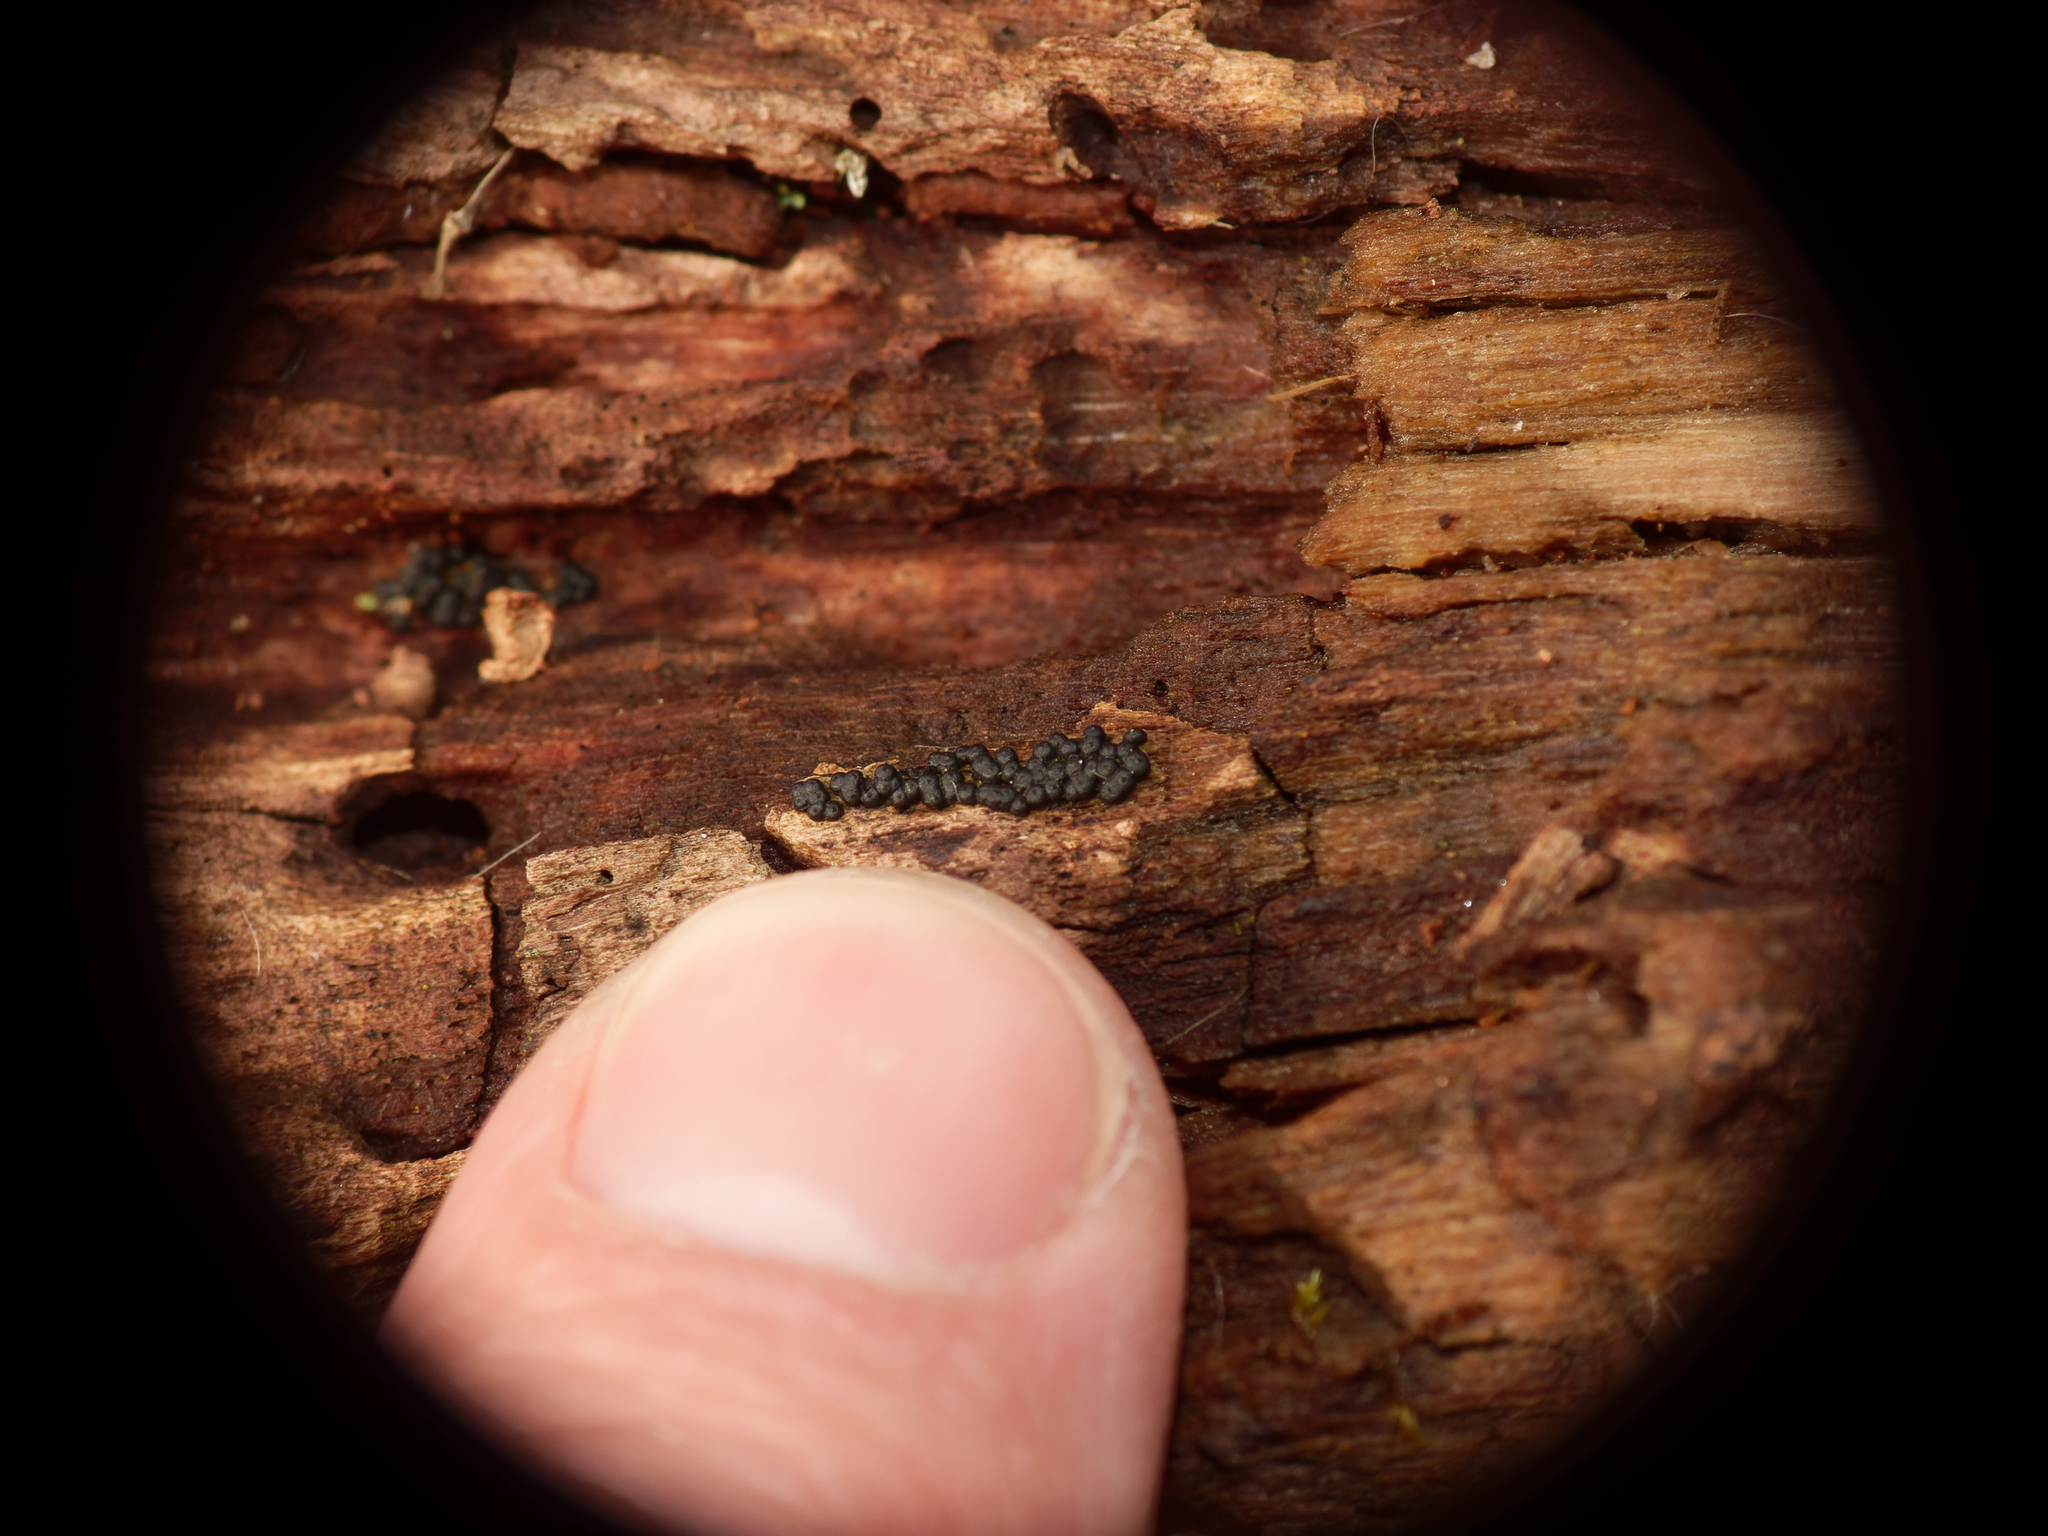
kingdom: Fungi
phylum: Ascomycota
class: Sordariomycetes
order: Xylariales
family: Xylariaceae
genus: Rosellinia
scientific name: Rosellinia subiculata
